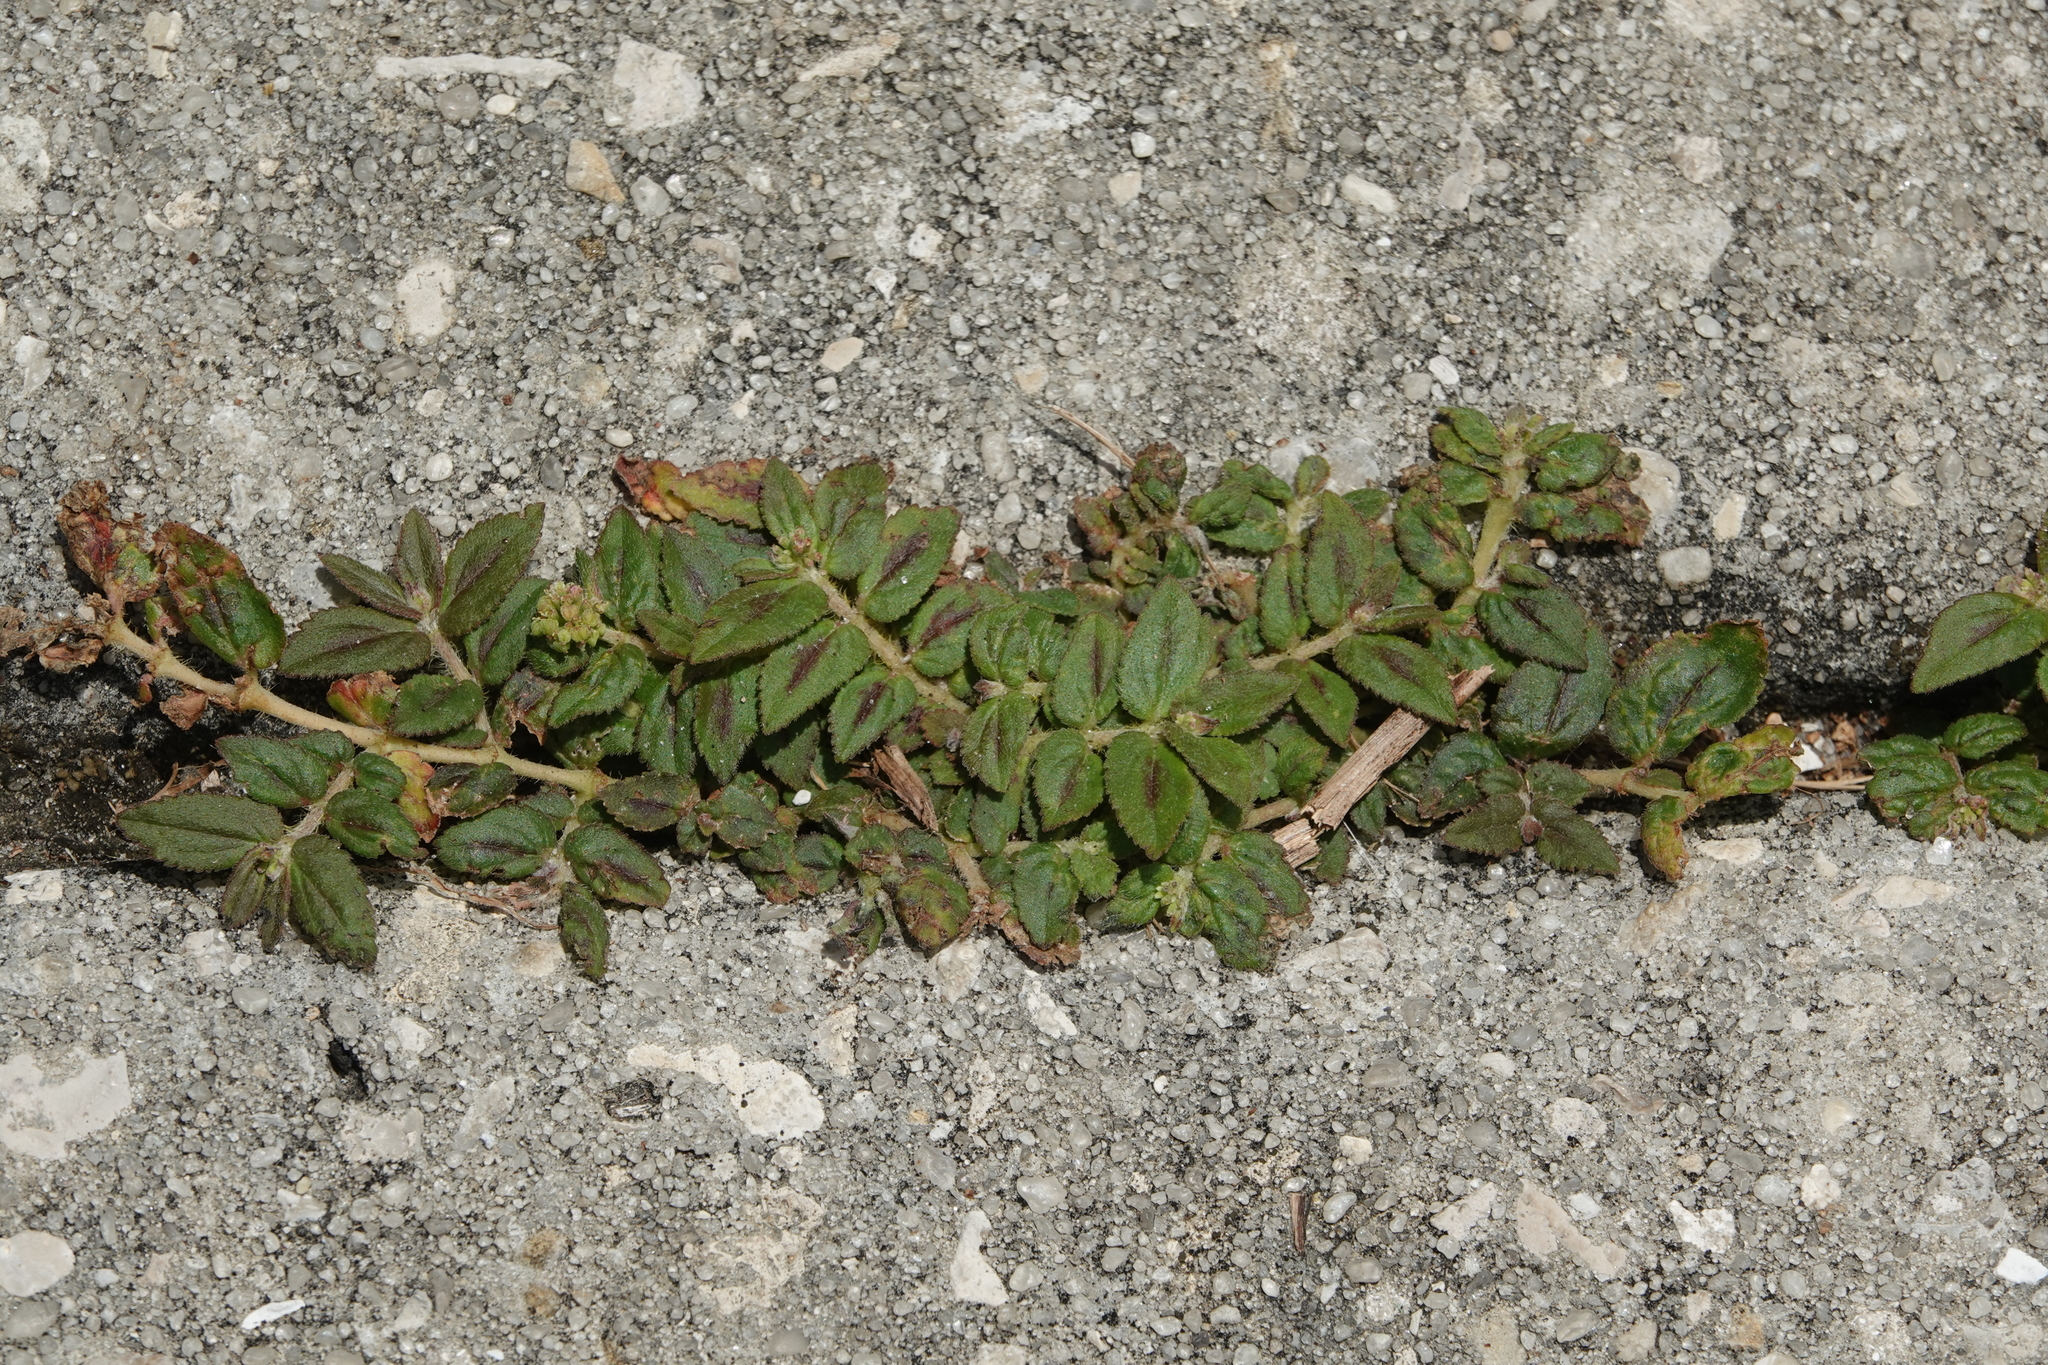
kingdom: Plantae
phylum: Tracheophyta
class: Magnoliopsida
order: Malpighiales
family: Euphorbiaceae
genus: Euphorbia
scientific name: Euphorbia hirta
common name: Pillpod sandmat
